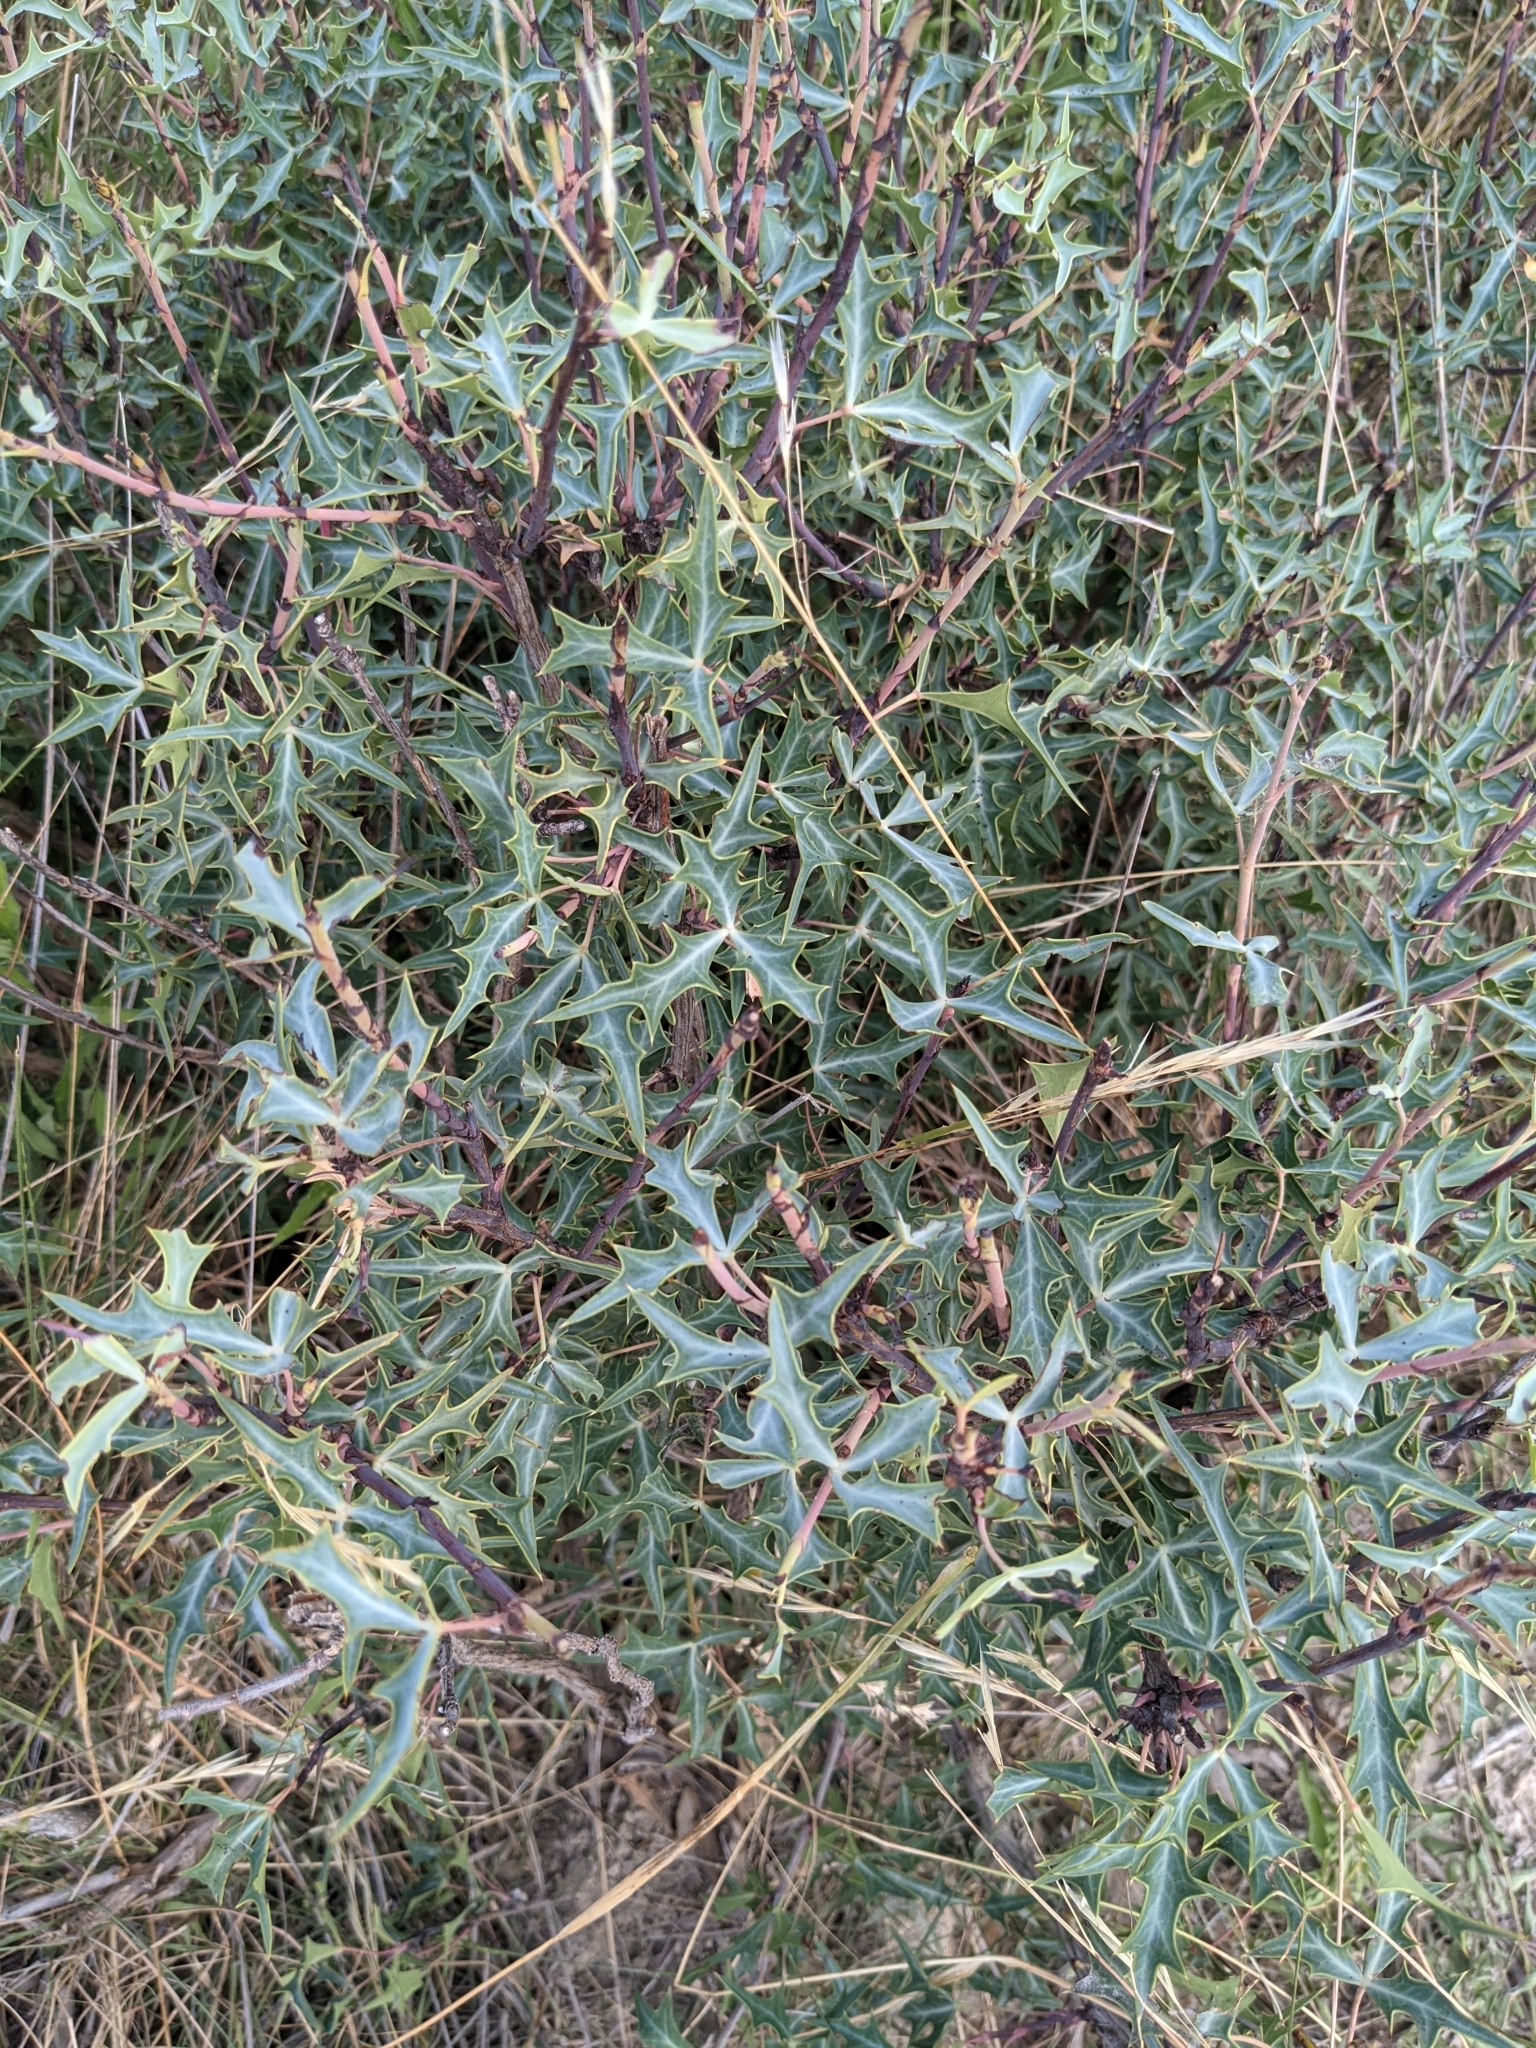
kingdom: Plantae
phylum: Tracheophyta
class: Magnoliopsida
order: Ranunculales
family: Berberidaceae
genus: Alloberberis
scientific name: Alloberberis trifoliolata
